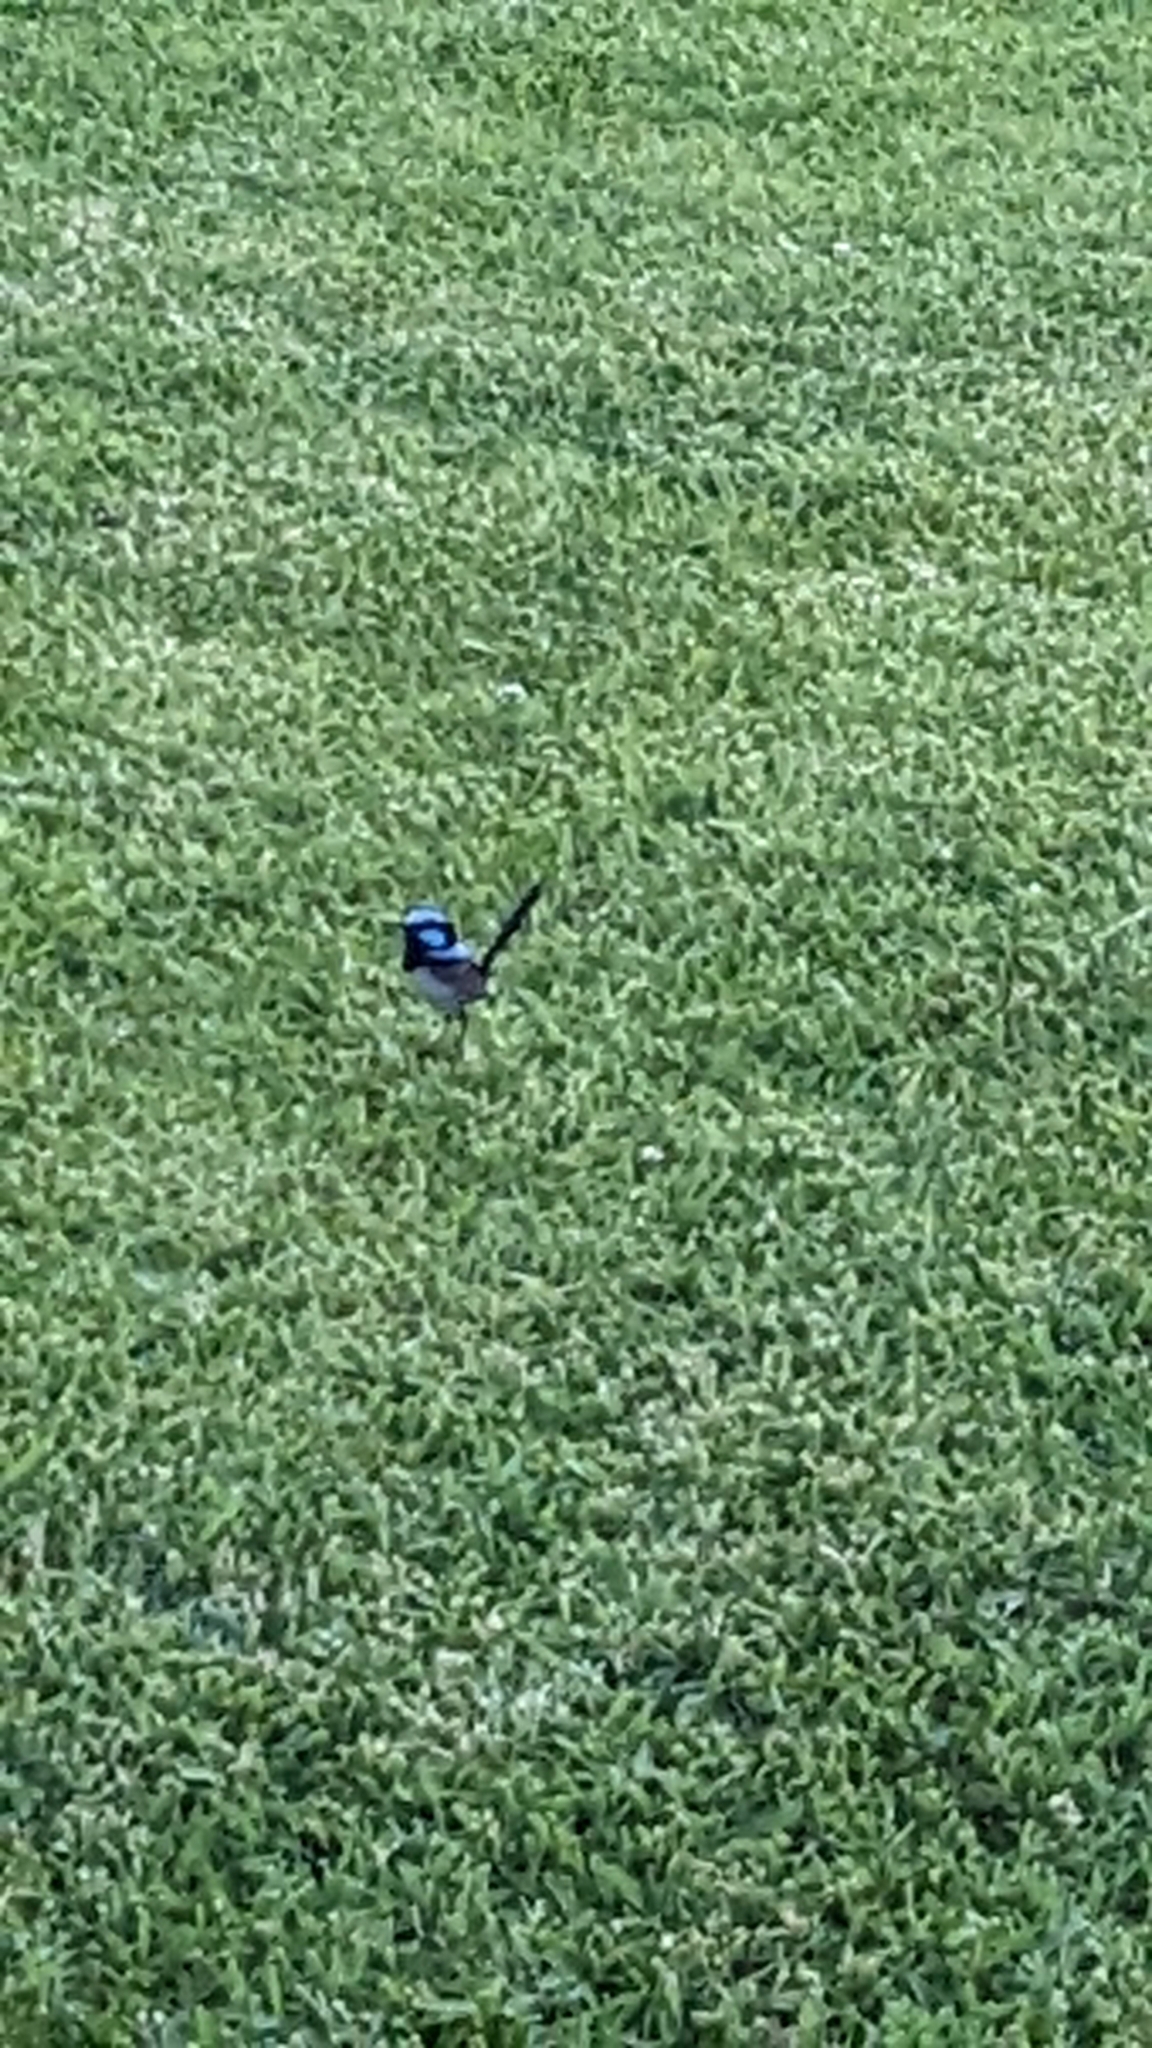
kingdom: Animalia
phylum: Chordata
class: Aves
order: Passeriformes
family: Maluridae
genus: Malurus
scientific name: Malurus cyaneus
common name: Superb fairywren
